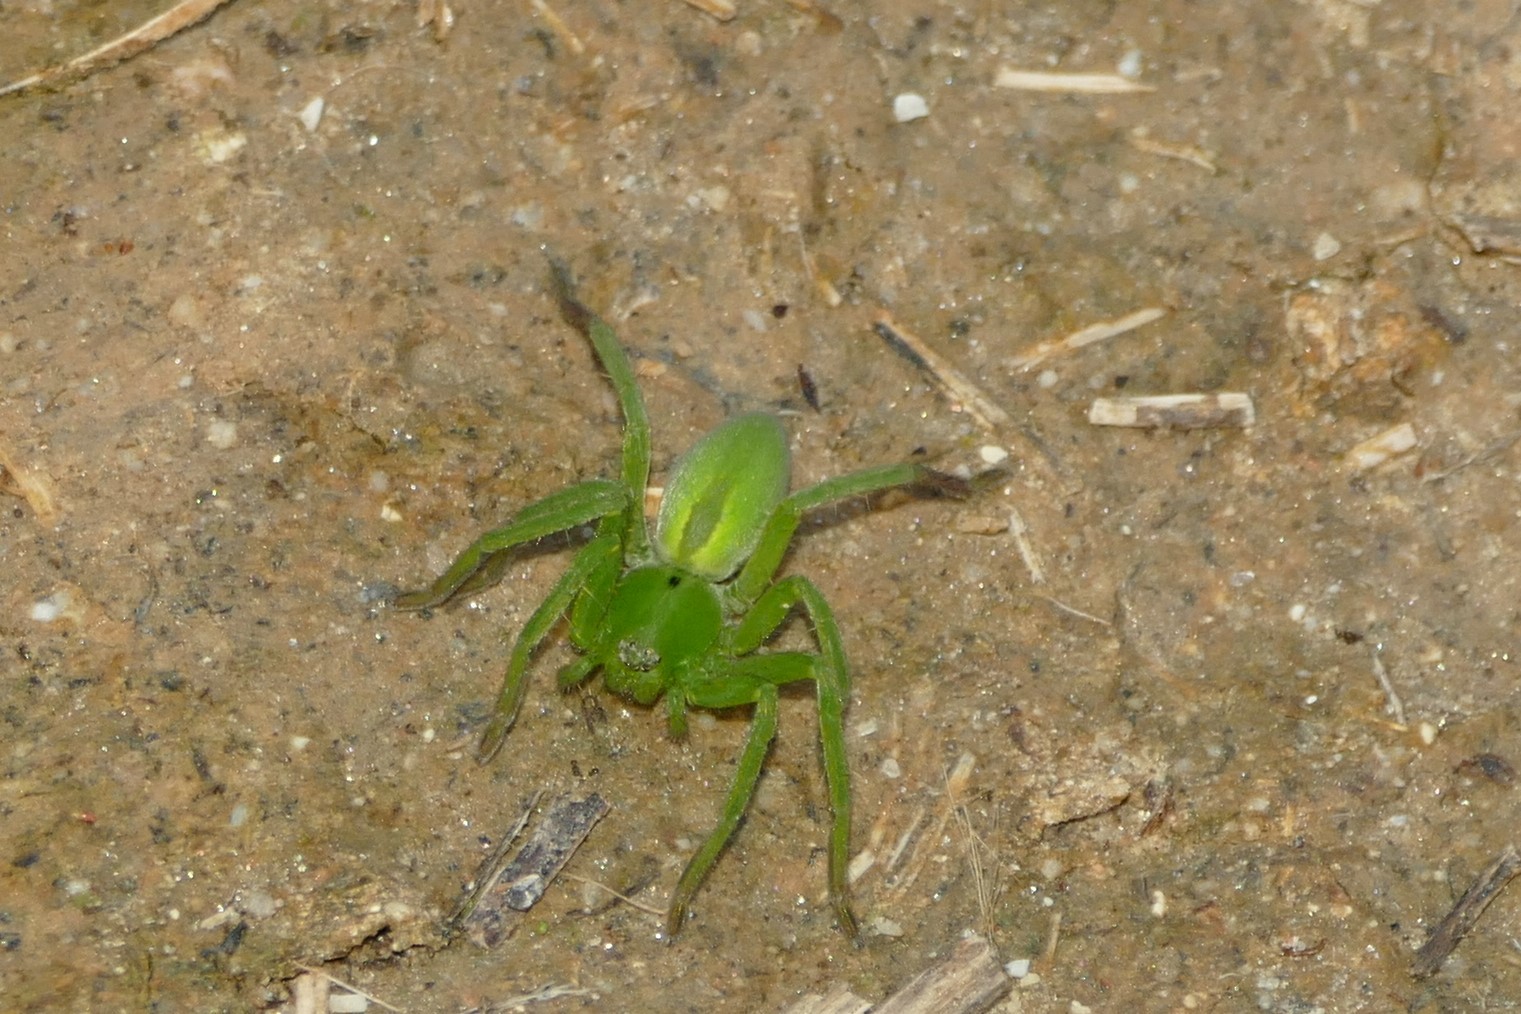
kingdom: Animalia
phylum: Arthropoda
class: Arachnida
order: Araneae
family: Sparassidae
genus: Micrommata
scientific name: Micrommata ligurina
